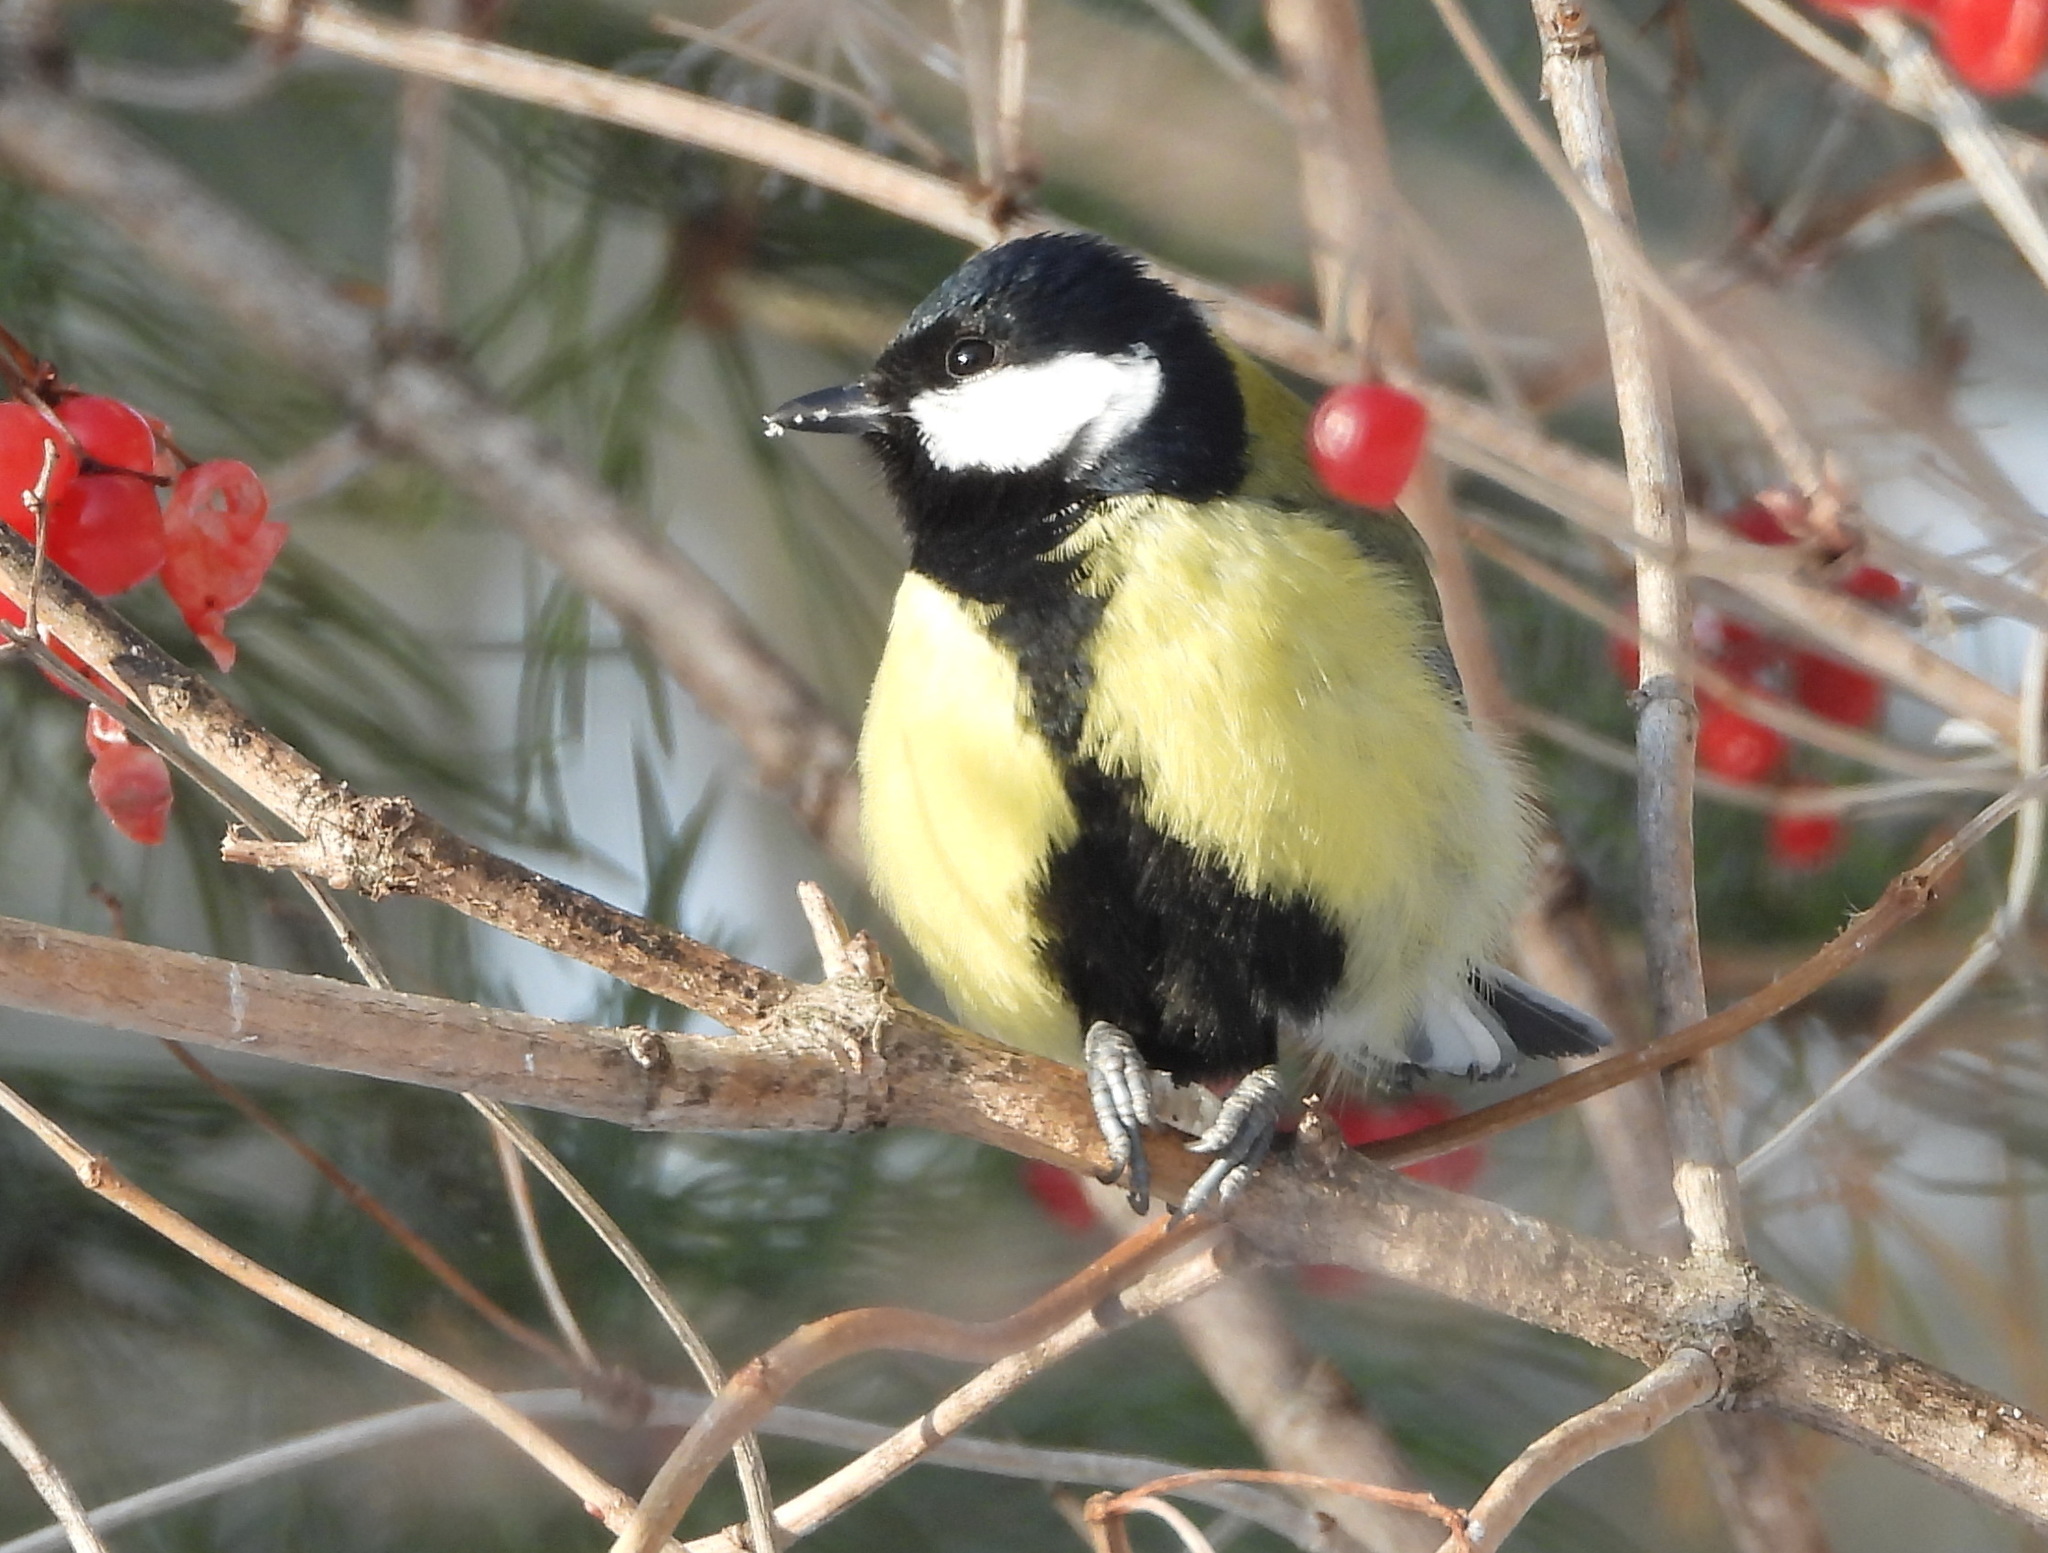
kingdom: Animalia
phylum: Chordata
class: Aves
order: Passeriformes
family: Paridae
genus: Parus
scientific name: Parus major
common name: Great tit
